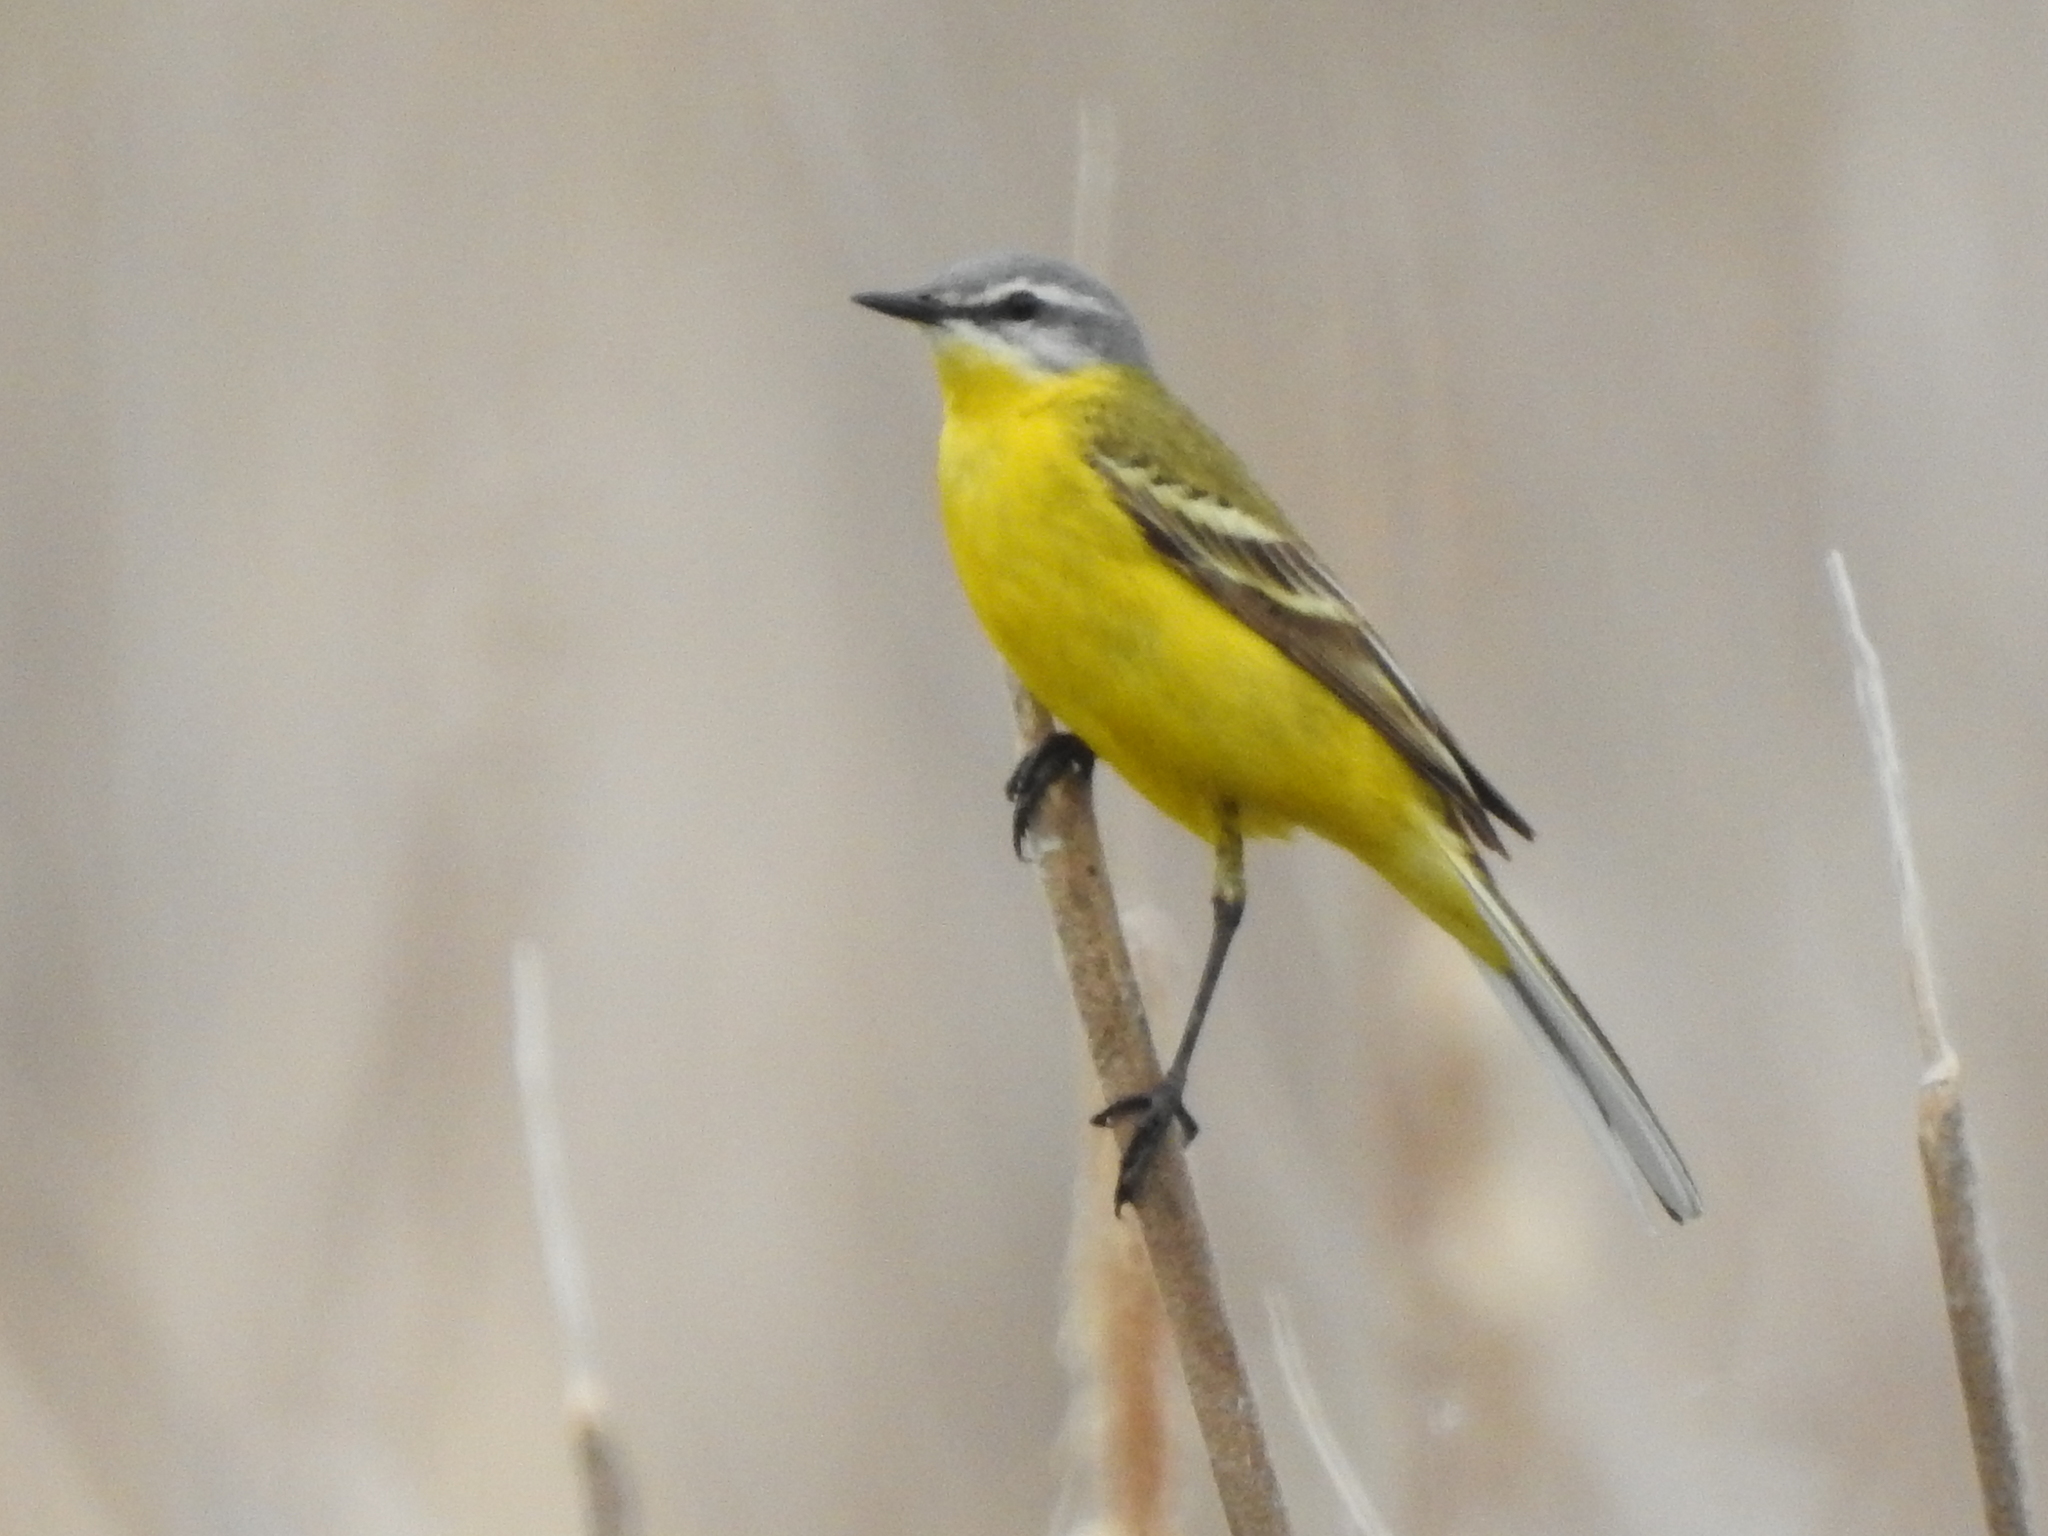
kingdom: Animalia
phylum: Chordata
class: Aves
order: Passeriformes
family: Motacillidae
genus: Motacilla
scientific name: Motacilla flava
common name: Western yellow wagtail
